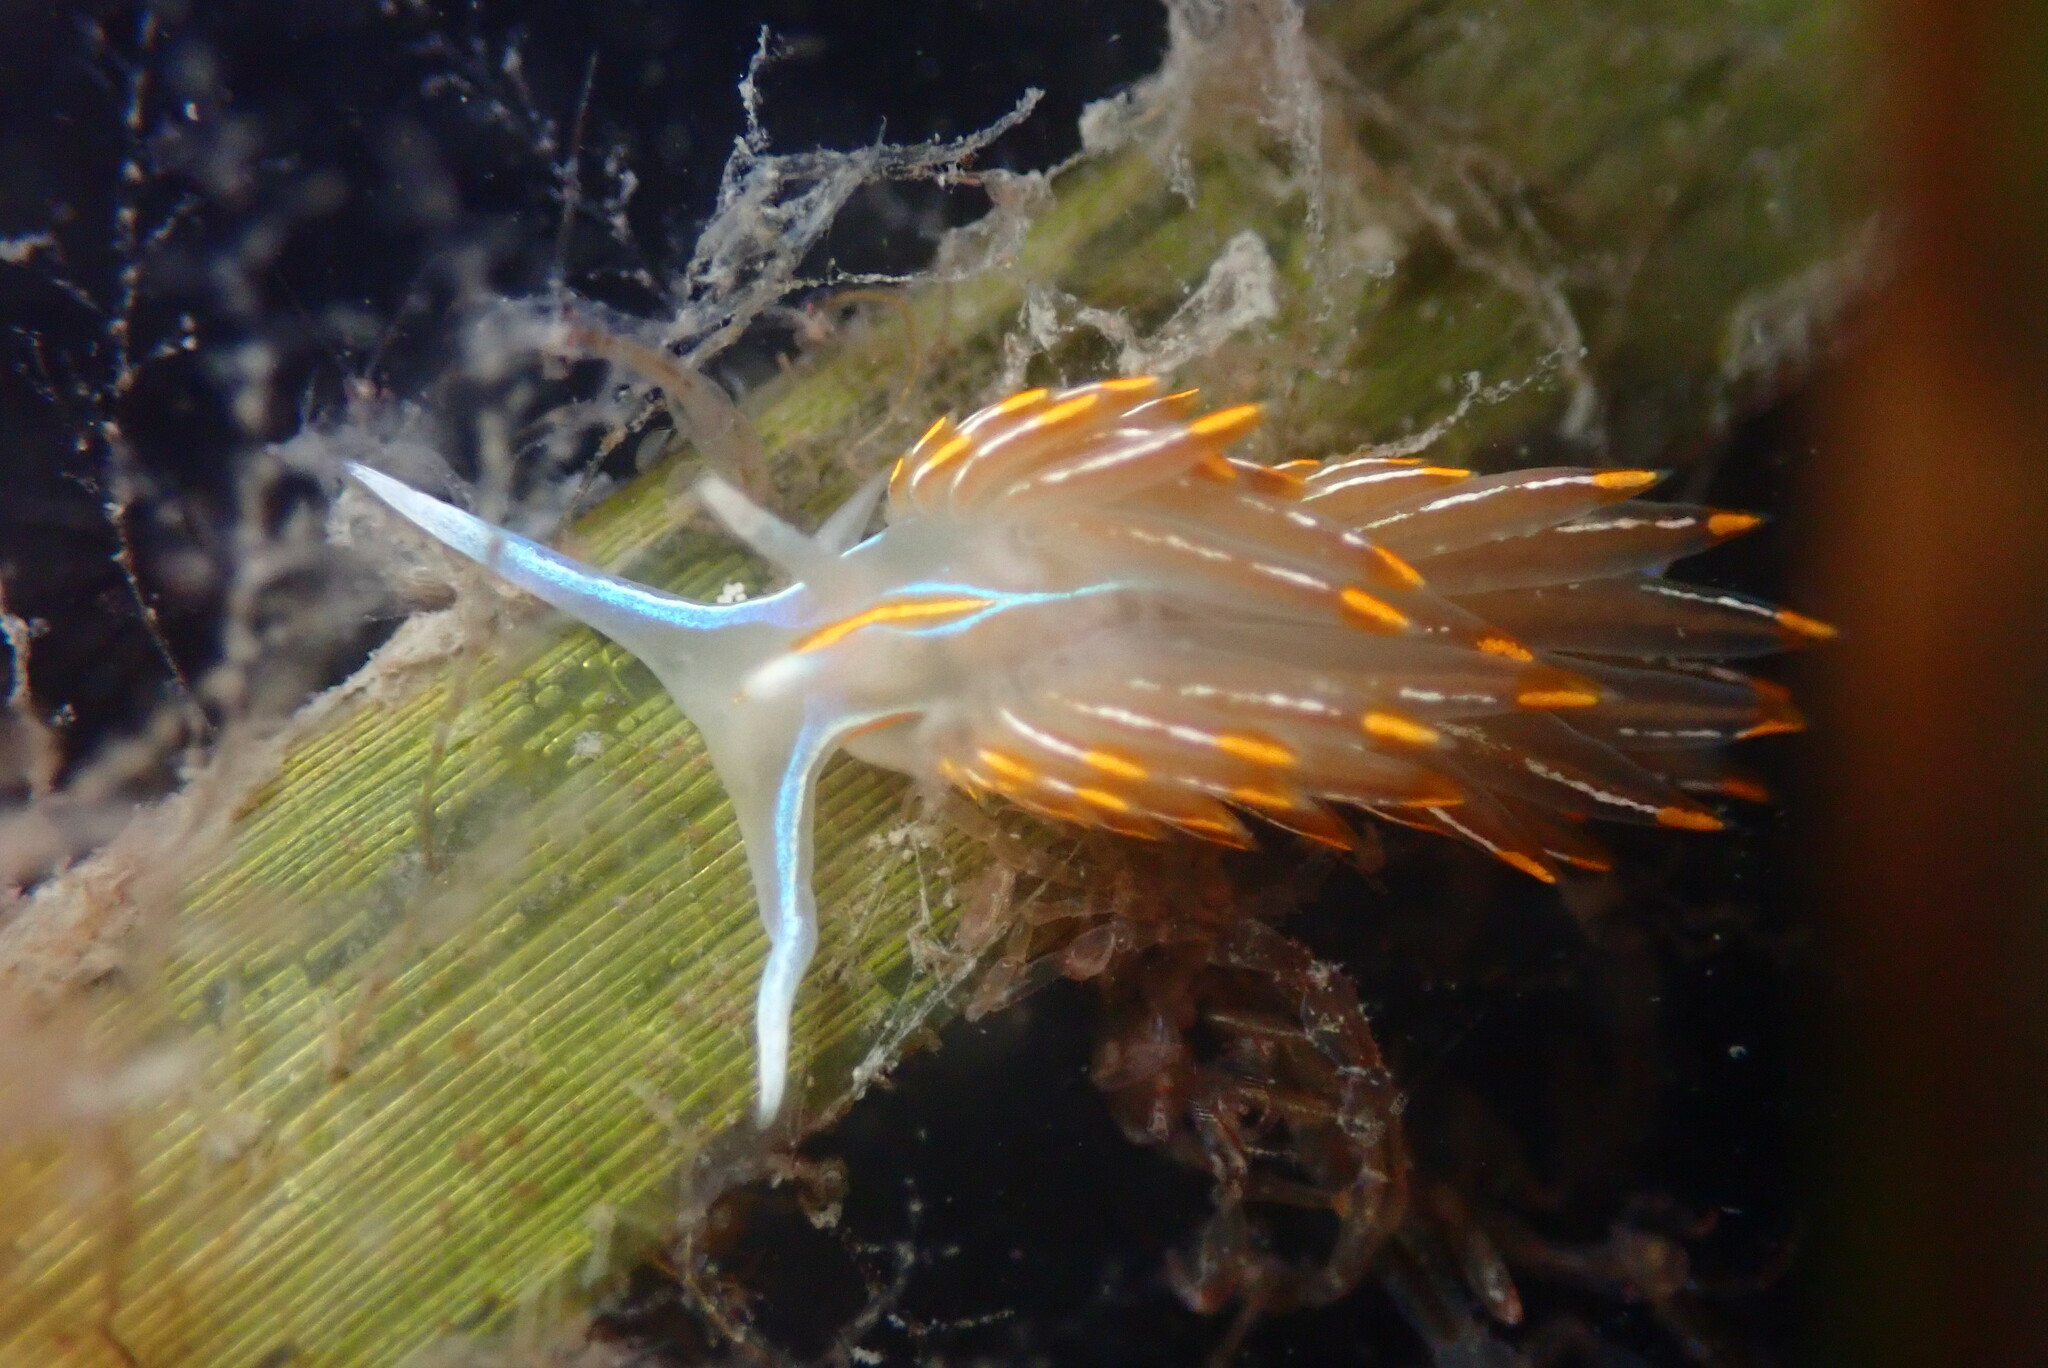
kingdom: Animalia
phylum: Mollusca
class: Gastropoda
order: Nudibranchia
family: Myrrhinidae
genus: Hermissenda
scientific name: Hermissenda crassicornis
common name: Hermissenda
